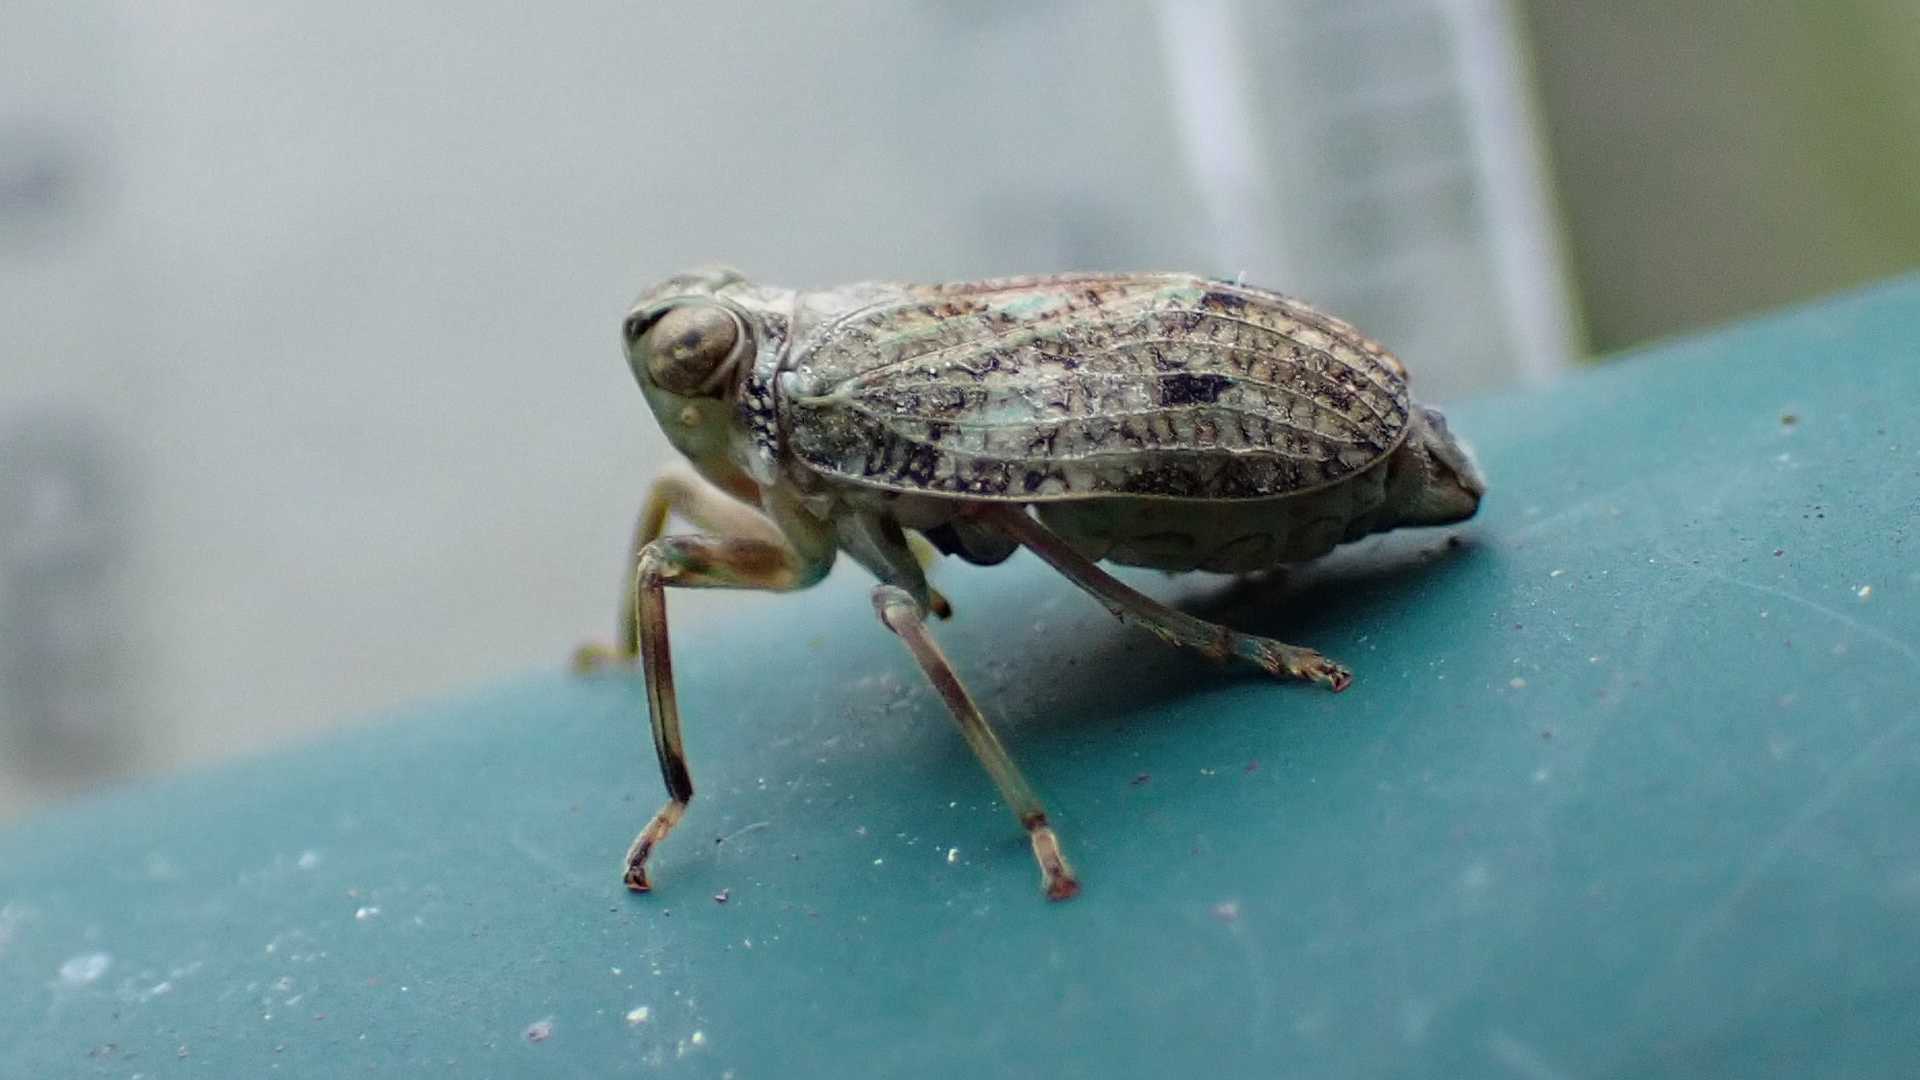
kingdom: Animalia
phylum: Arthropoda
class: Insecta
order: Hemiptera
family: Issidae
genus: Issus
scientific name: Issus coleoptratus
